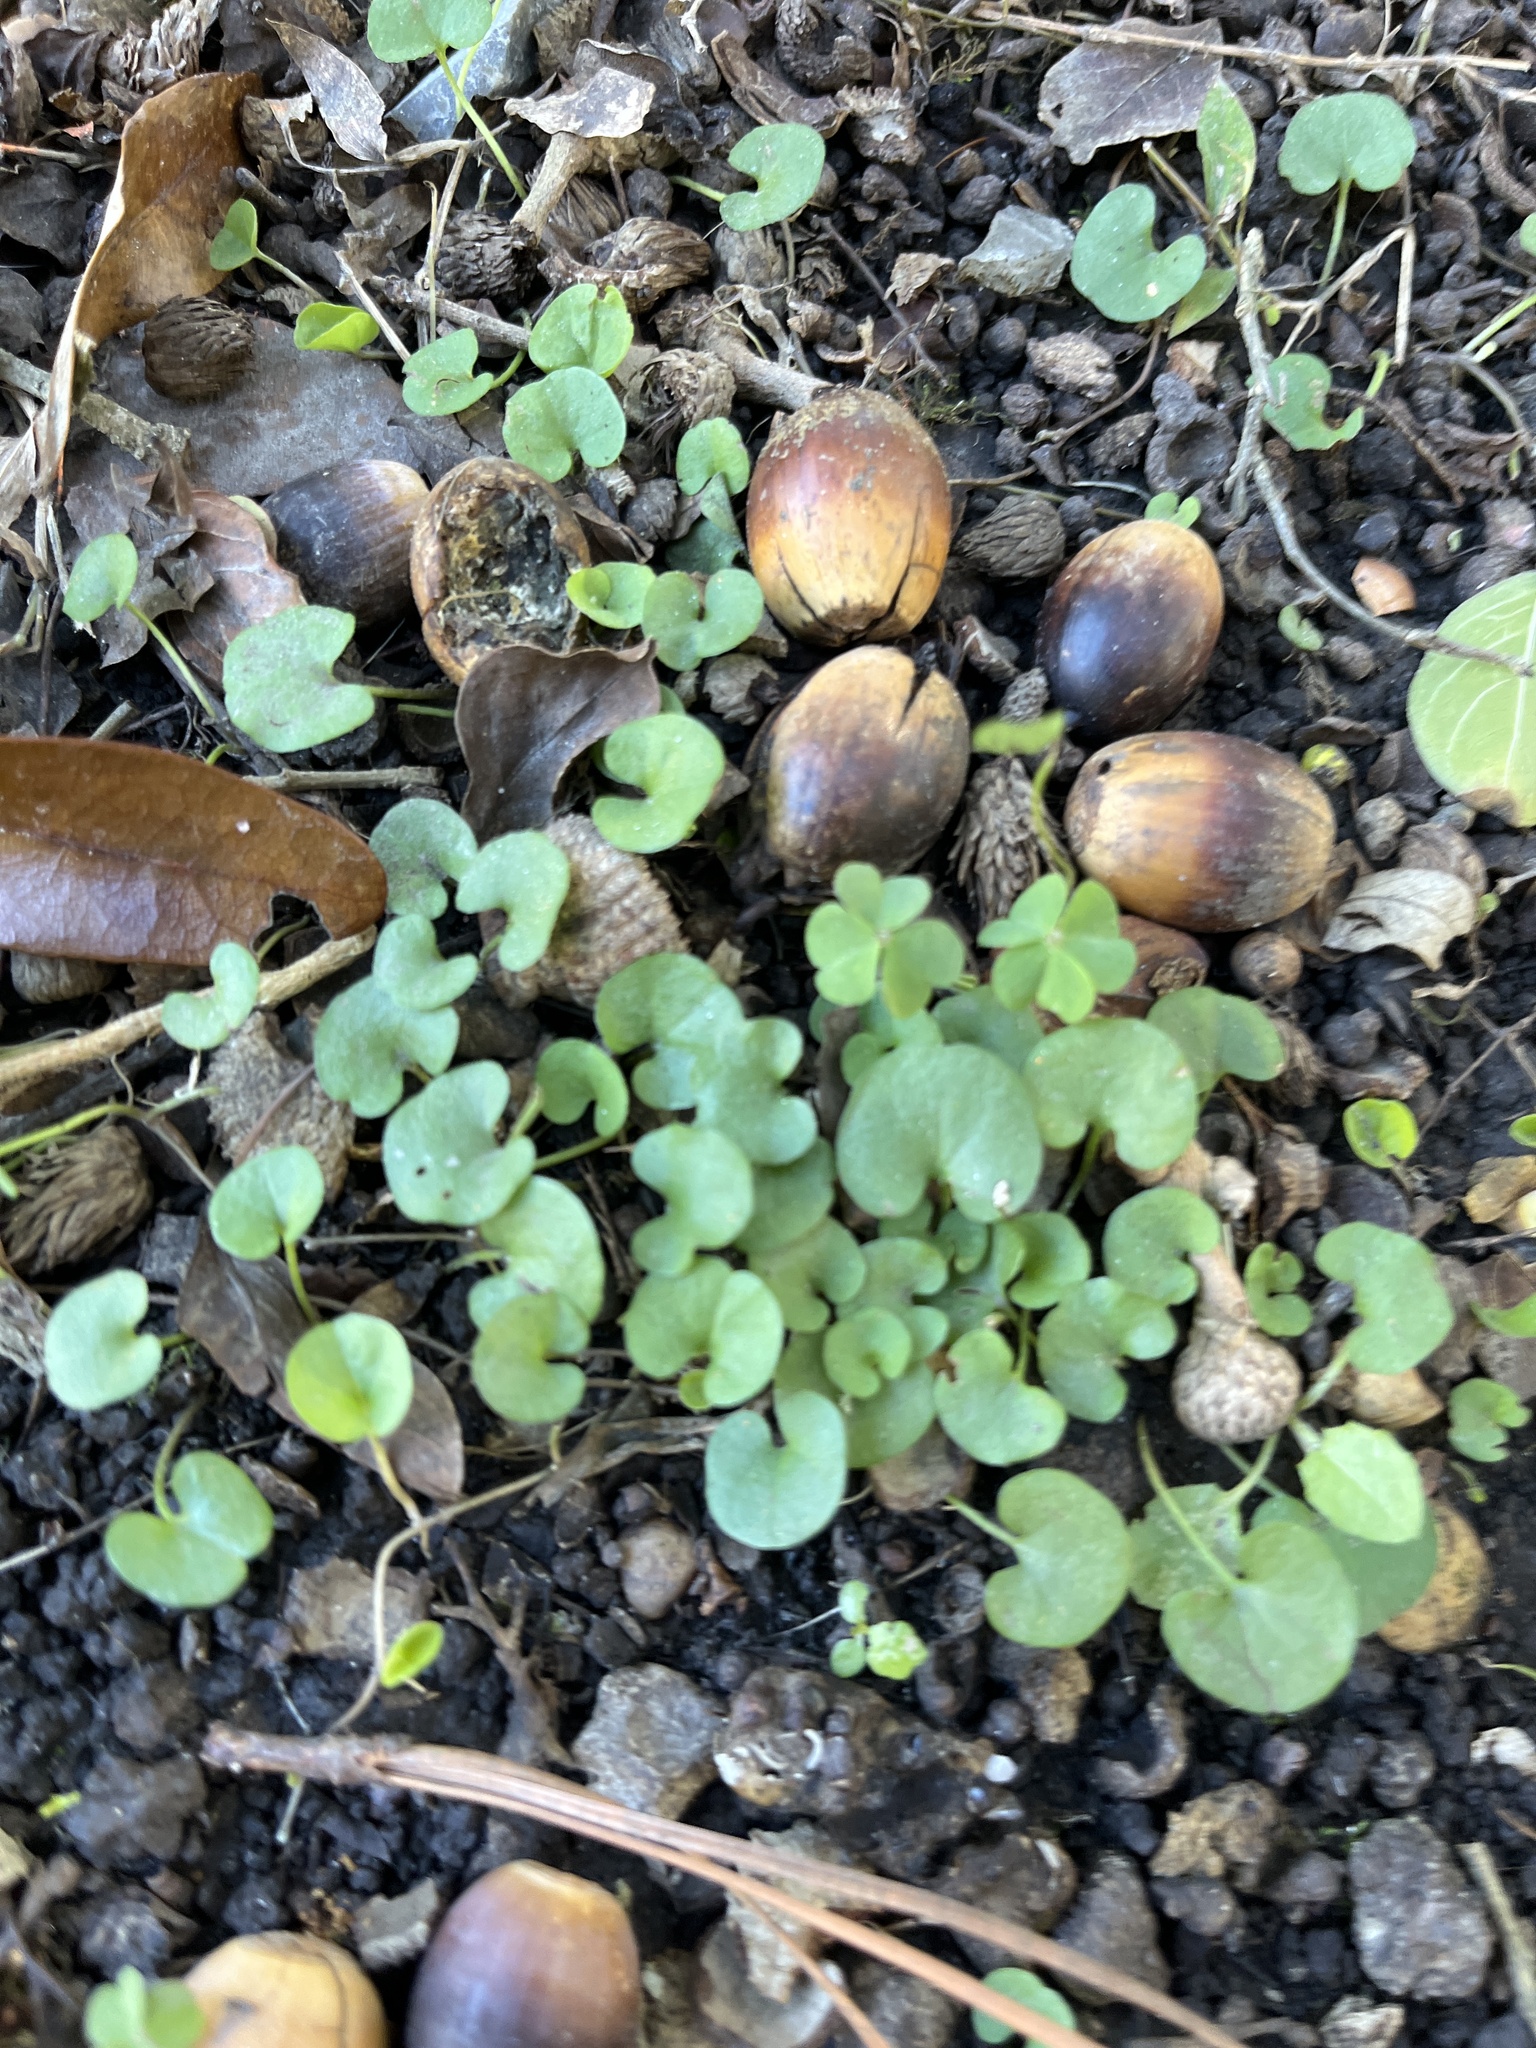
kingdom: Plantae
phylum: Tracheophyta
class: Magnoliopsida
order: Solanales
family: Convolvulaceae
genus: Dichondra
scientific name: Dichondra carolinensis
